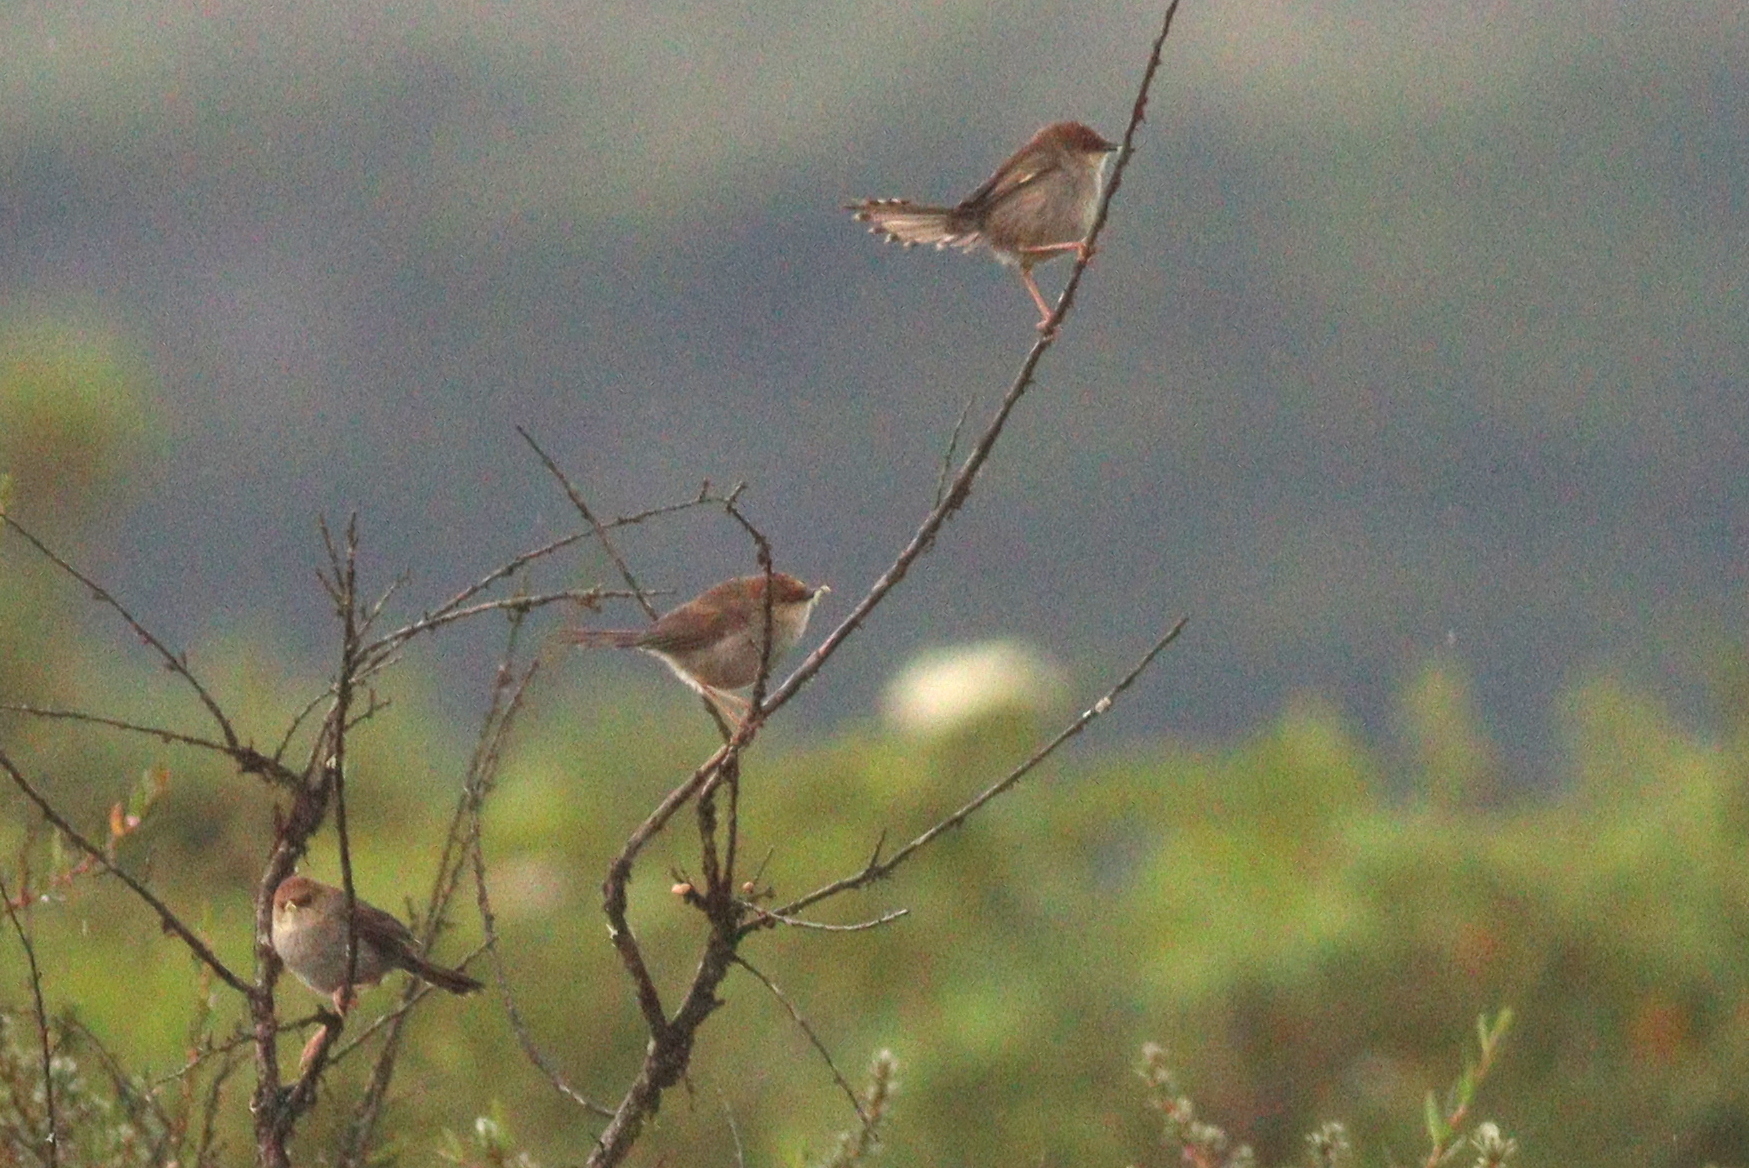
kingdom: Animalia
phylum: Chordata
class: Aves
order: Passeriformes
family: Cisticolidae
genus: Cisticola
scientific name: Cisticola hunteri
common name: Hunter's cisticola
